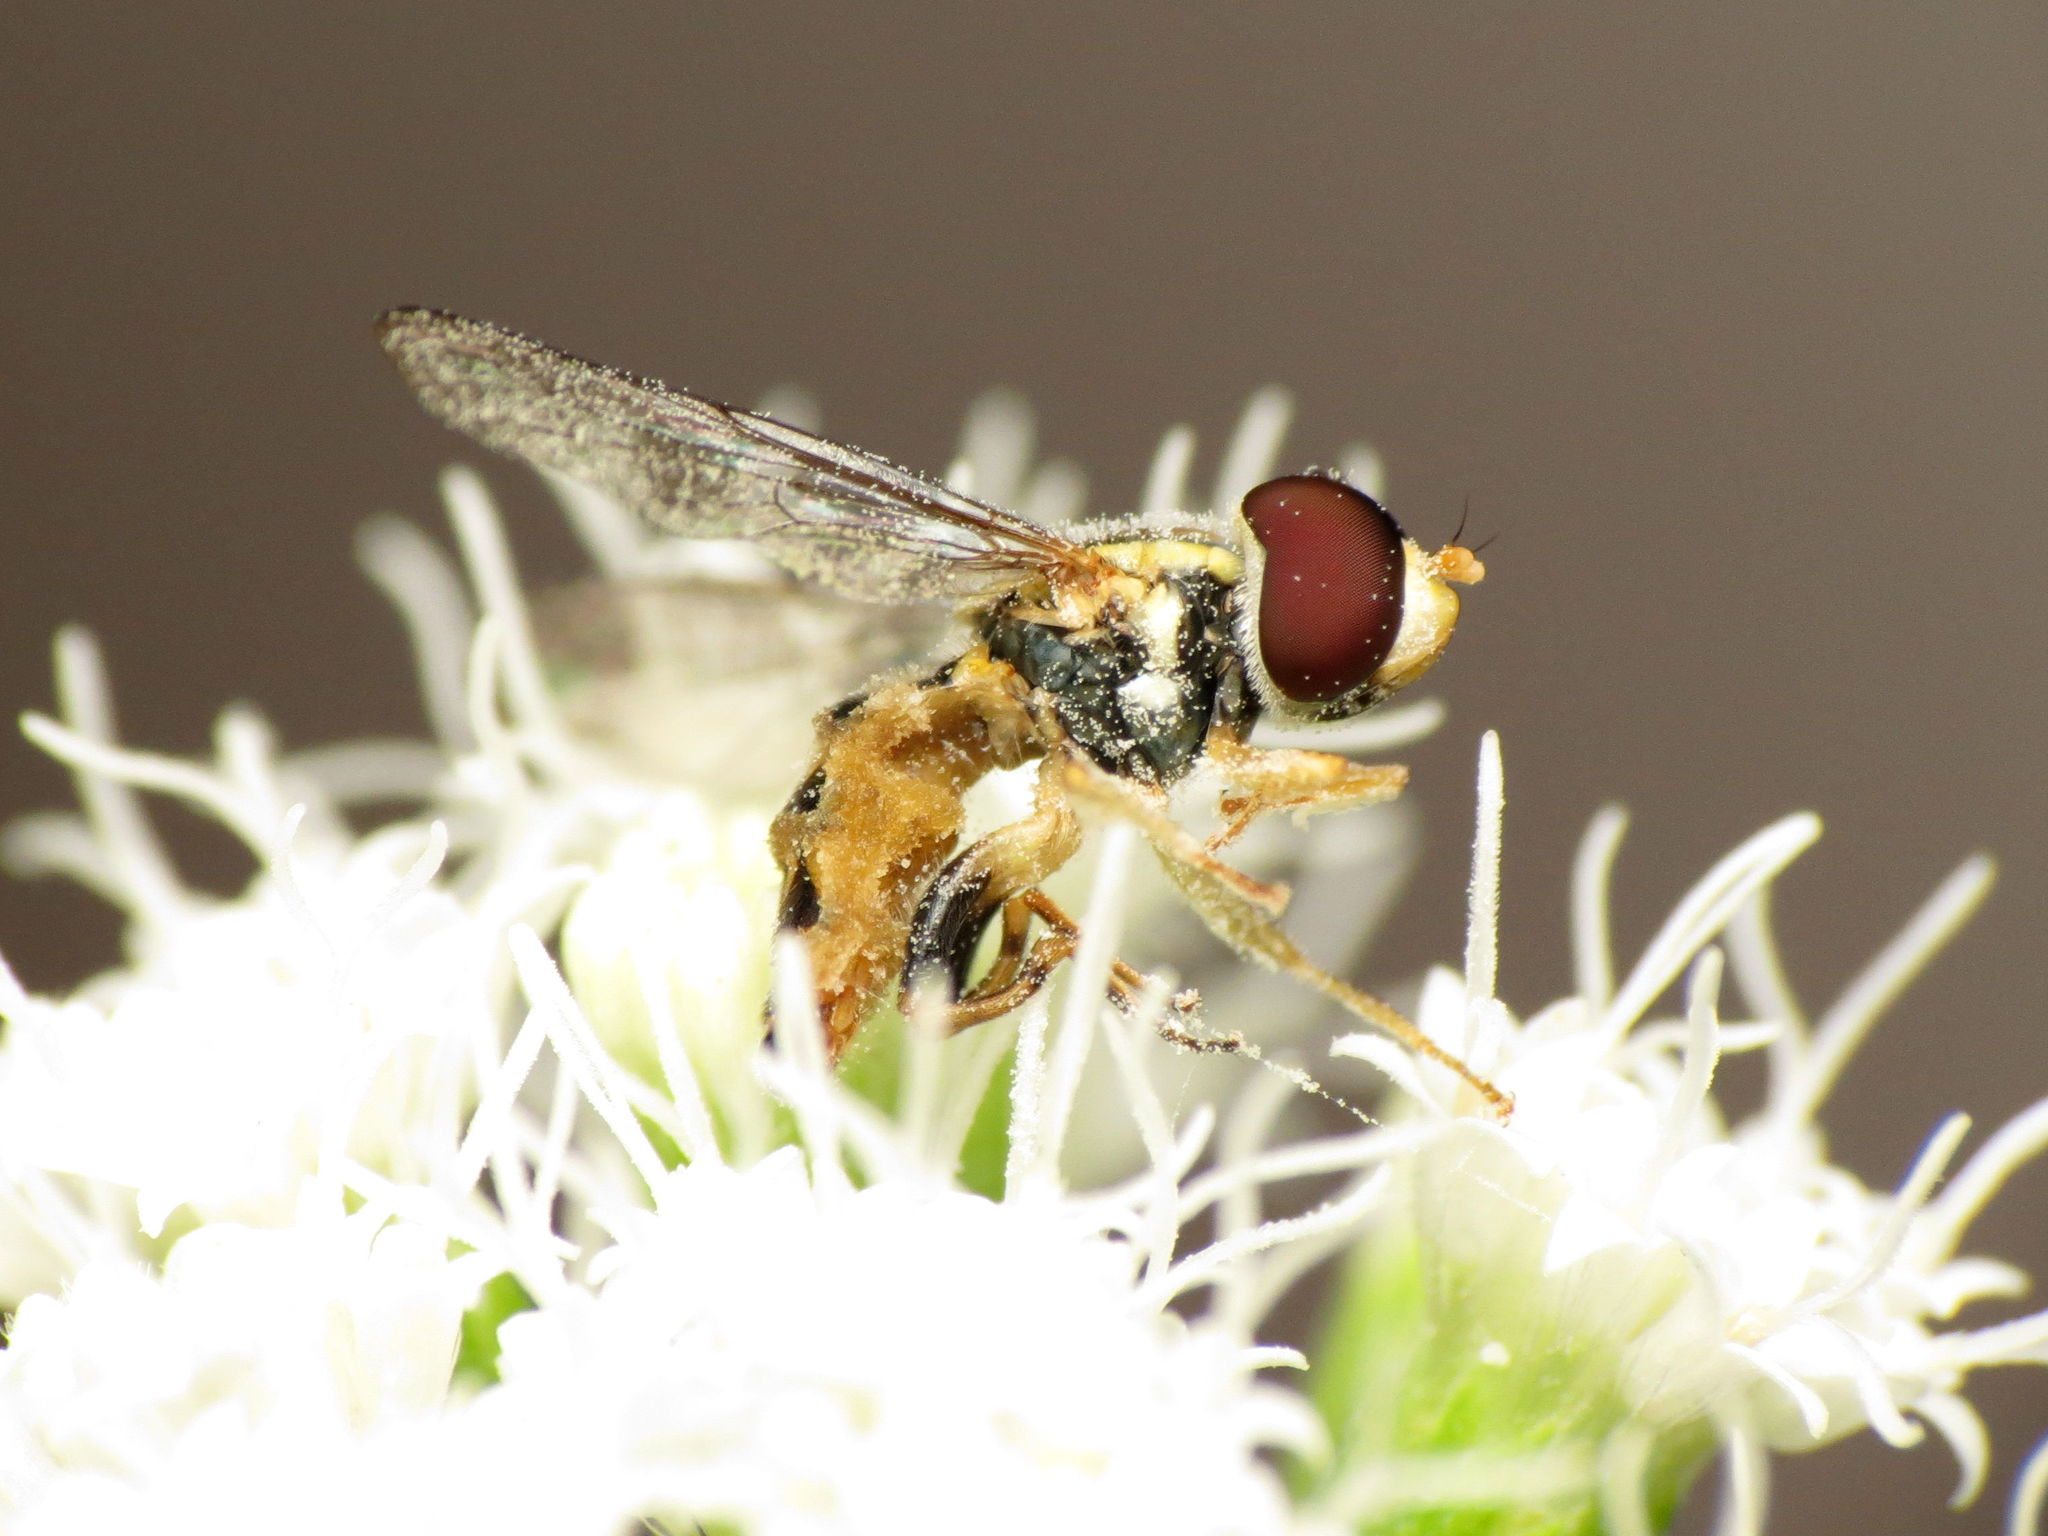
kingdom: Animalia
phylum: Arthropoda
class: Insecta
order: Diptera
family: Syrphidae
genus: Toxomerus
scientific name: Toxomerus geminatus
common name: Eastern calligrapher
